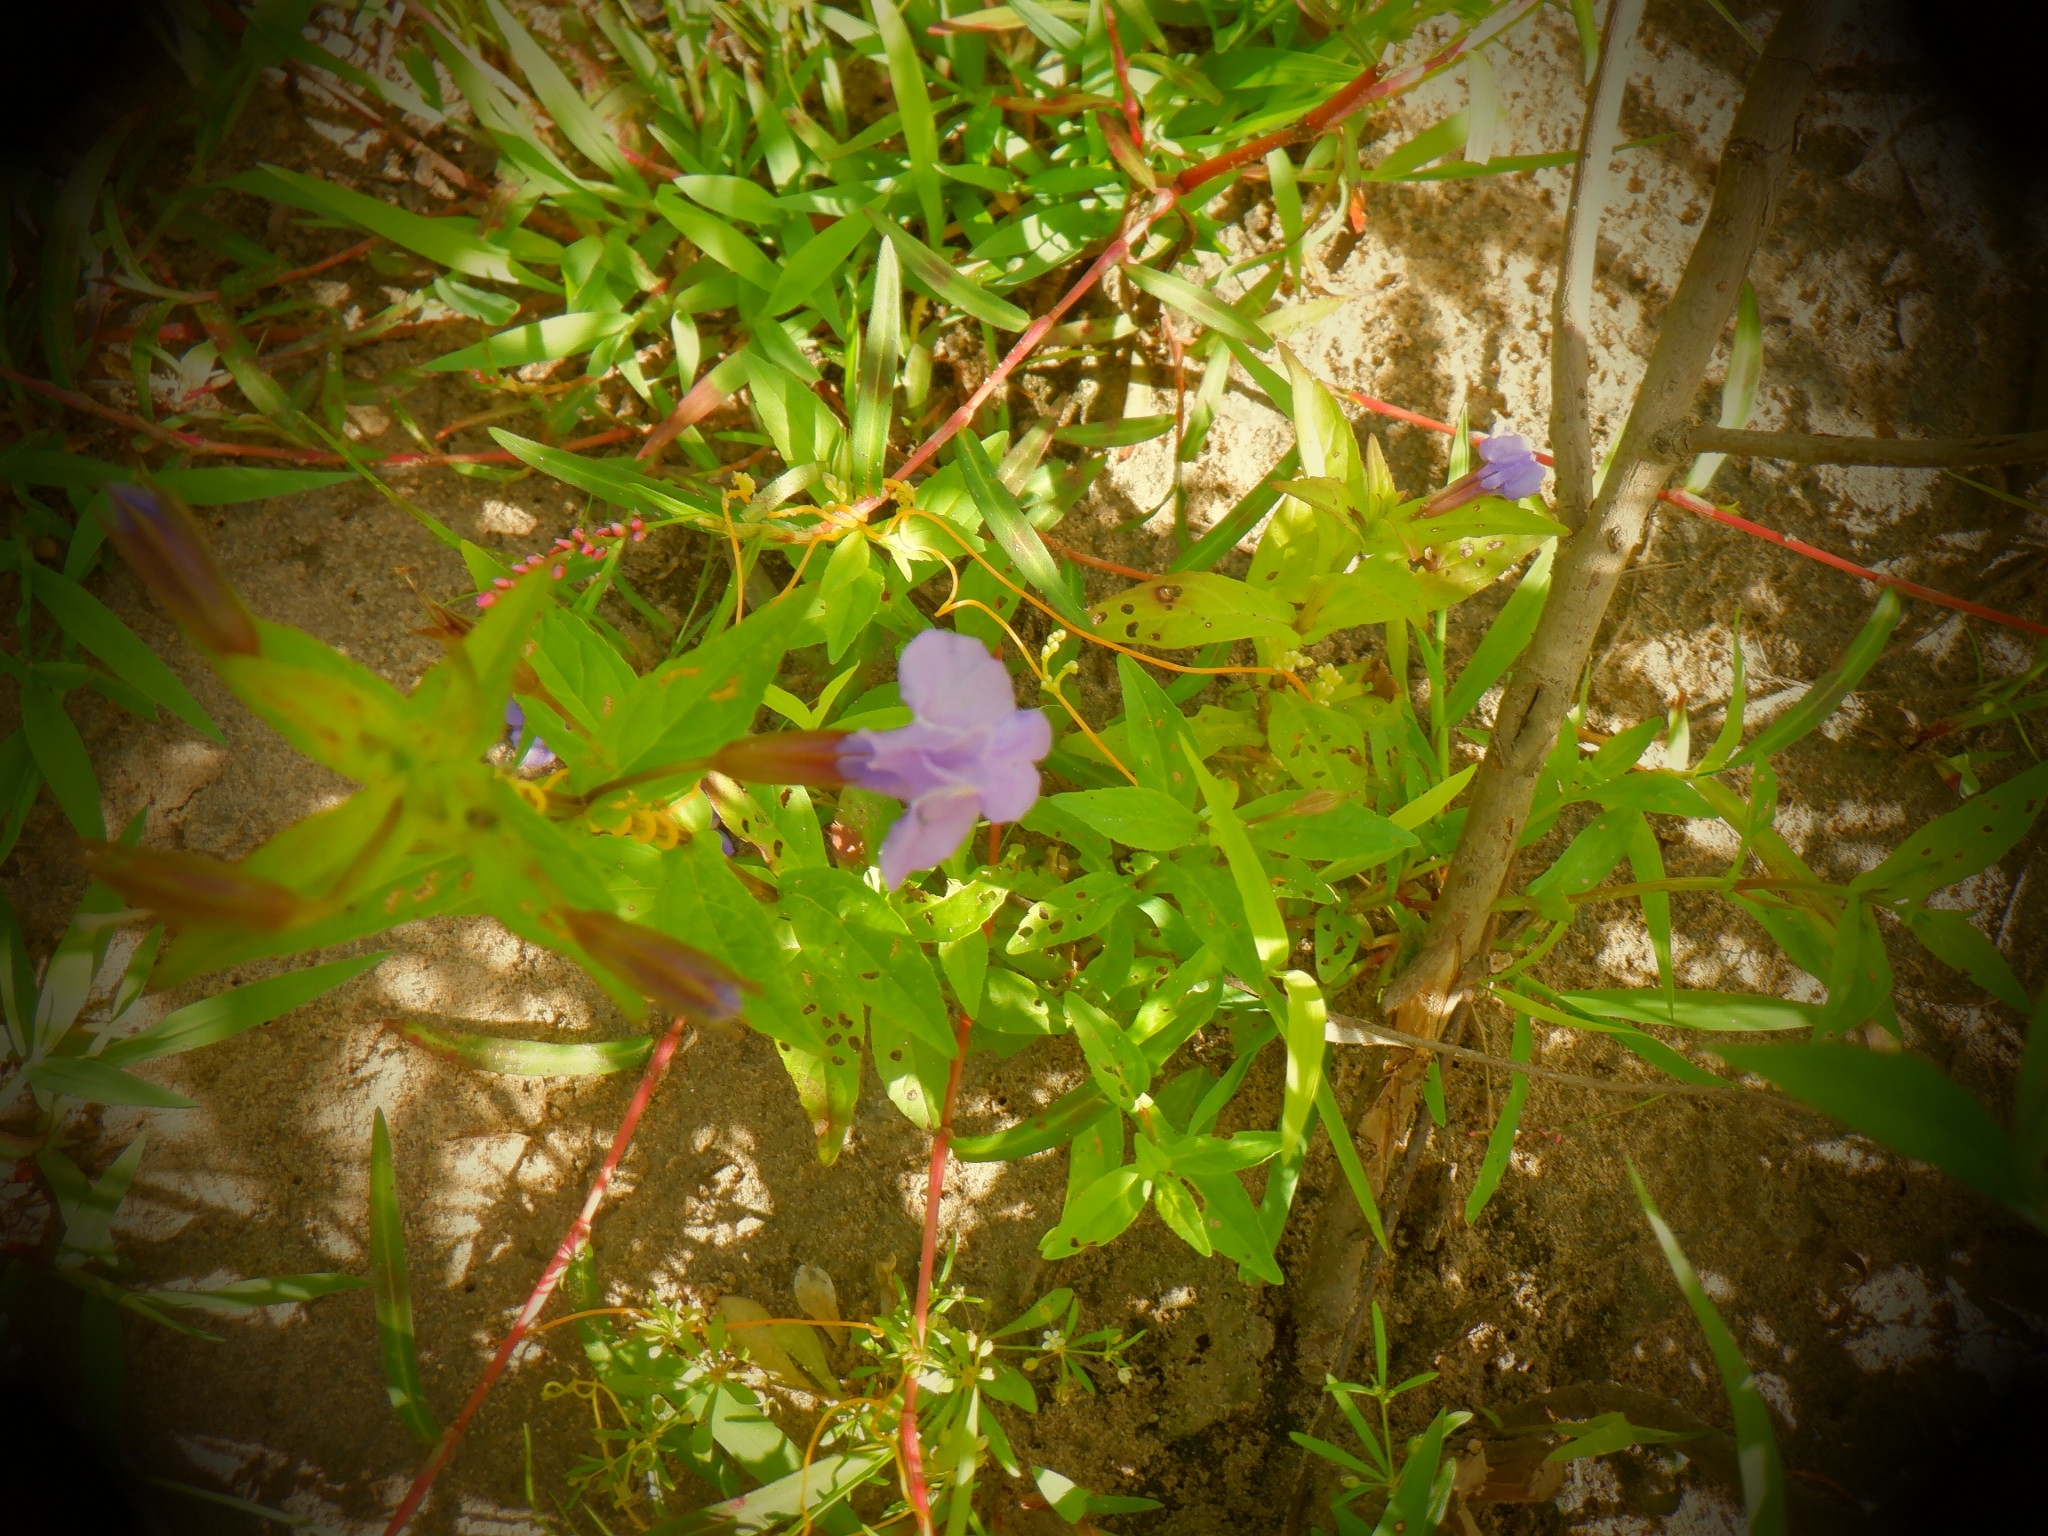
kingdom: Plantae
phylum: Tracheophyta
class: Magnoliopsida
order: Lamiales
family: Phrymaceae
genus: Mimulus
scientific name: Mimulus ringens
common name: Allegheny monkeyflower
